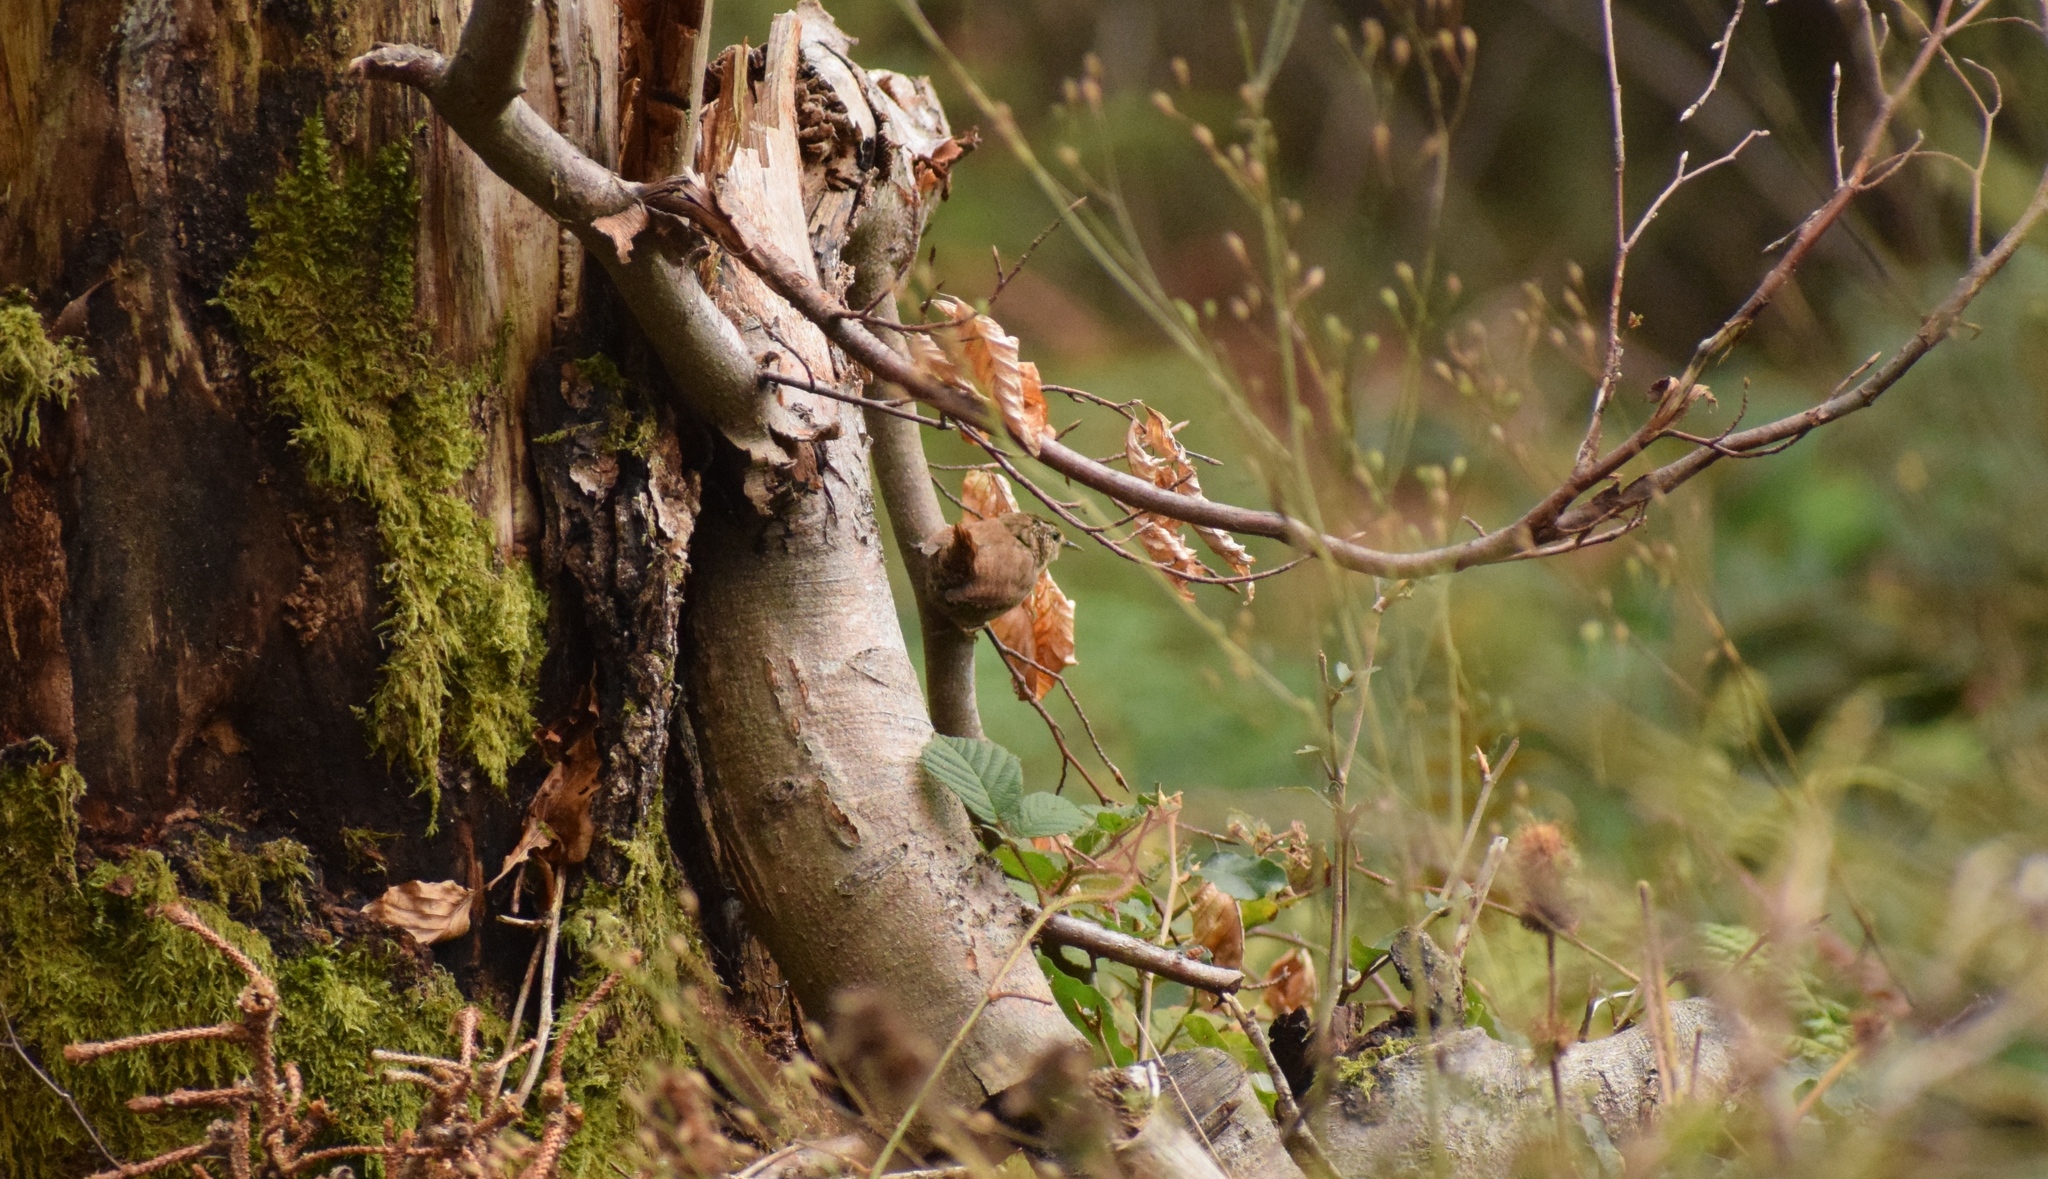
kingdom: Animalia
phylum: Chordata
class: Aves
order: Passeriformes
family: Troglodytidae
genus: Troglodytes
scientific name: Troglodytes troglodytes
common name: Eurasian wren
